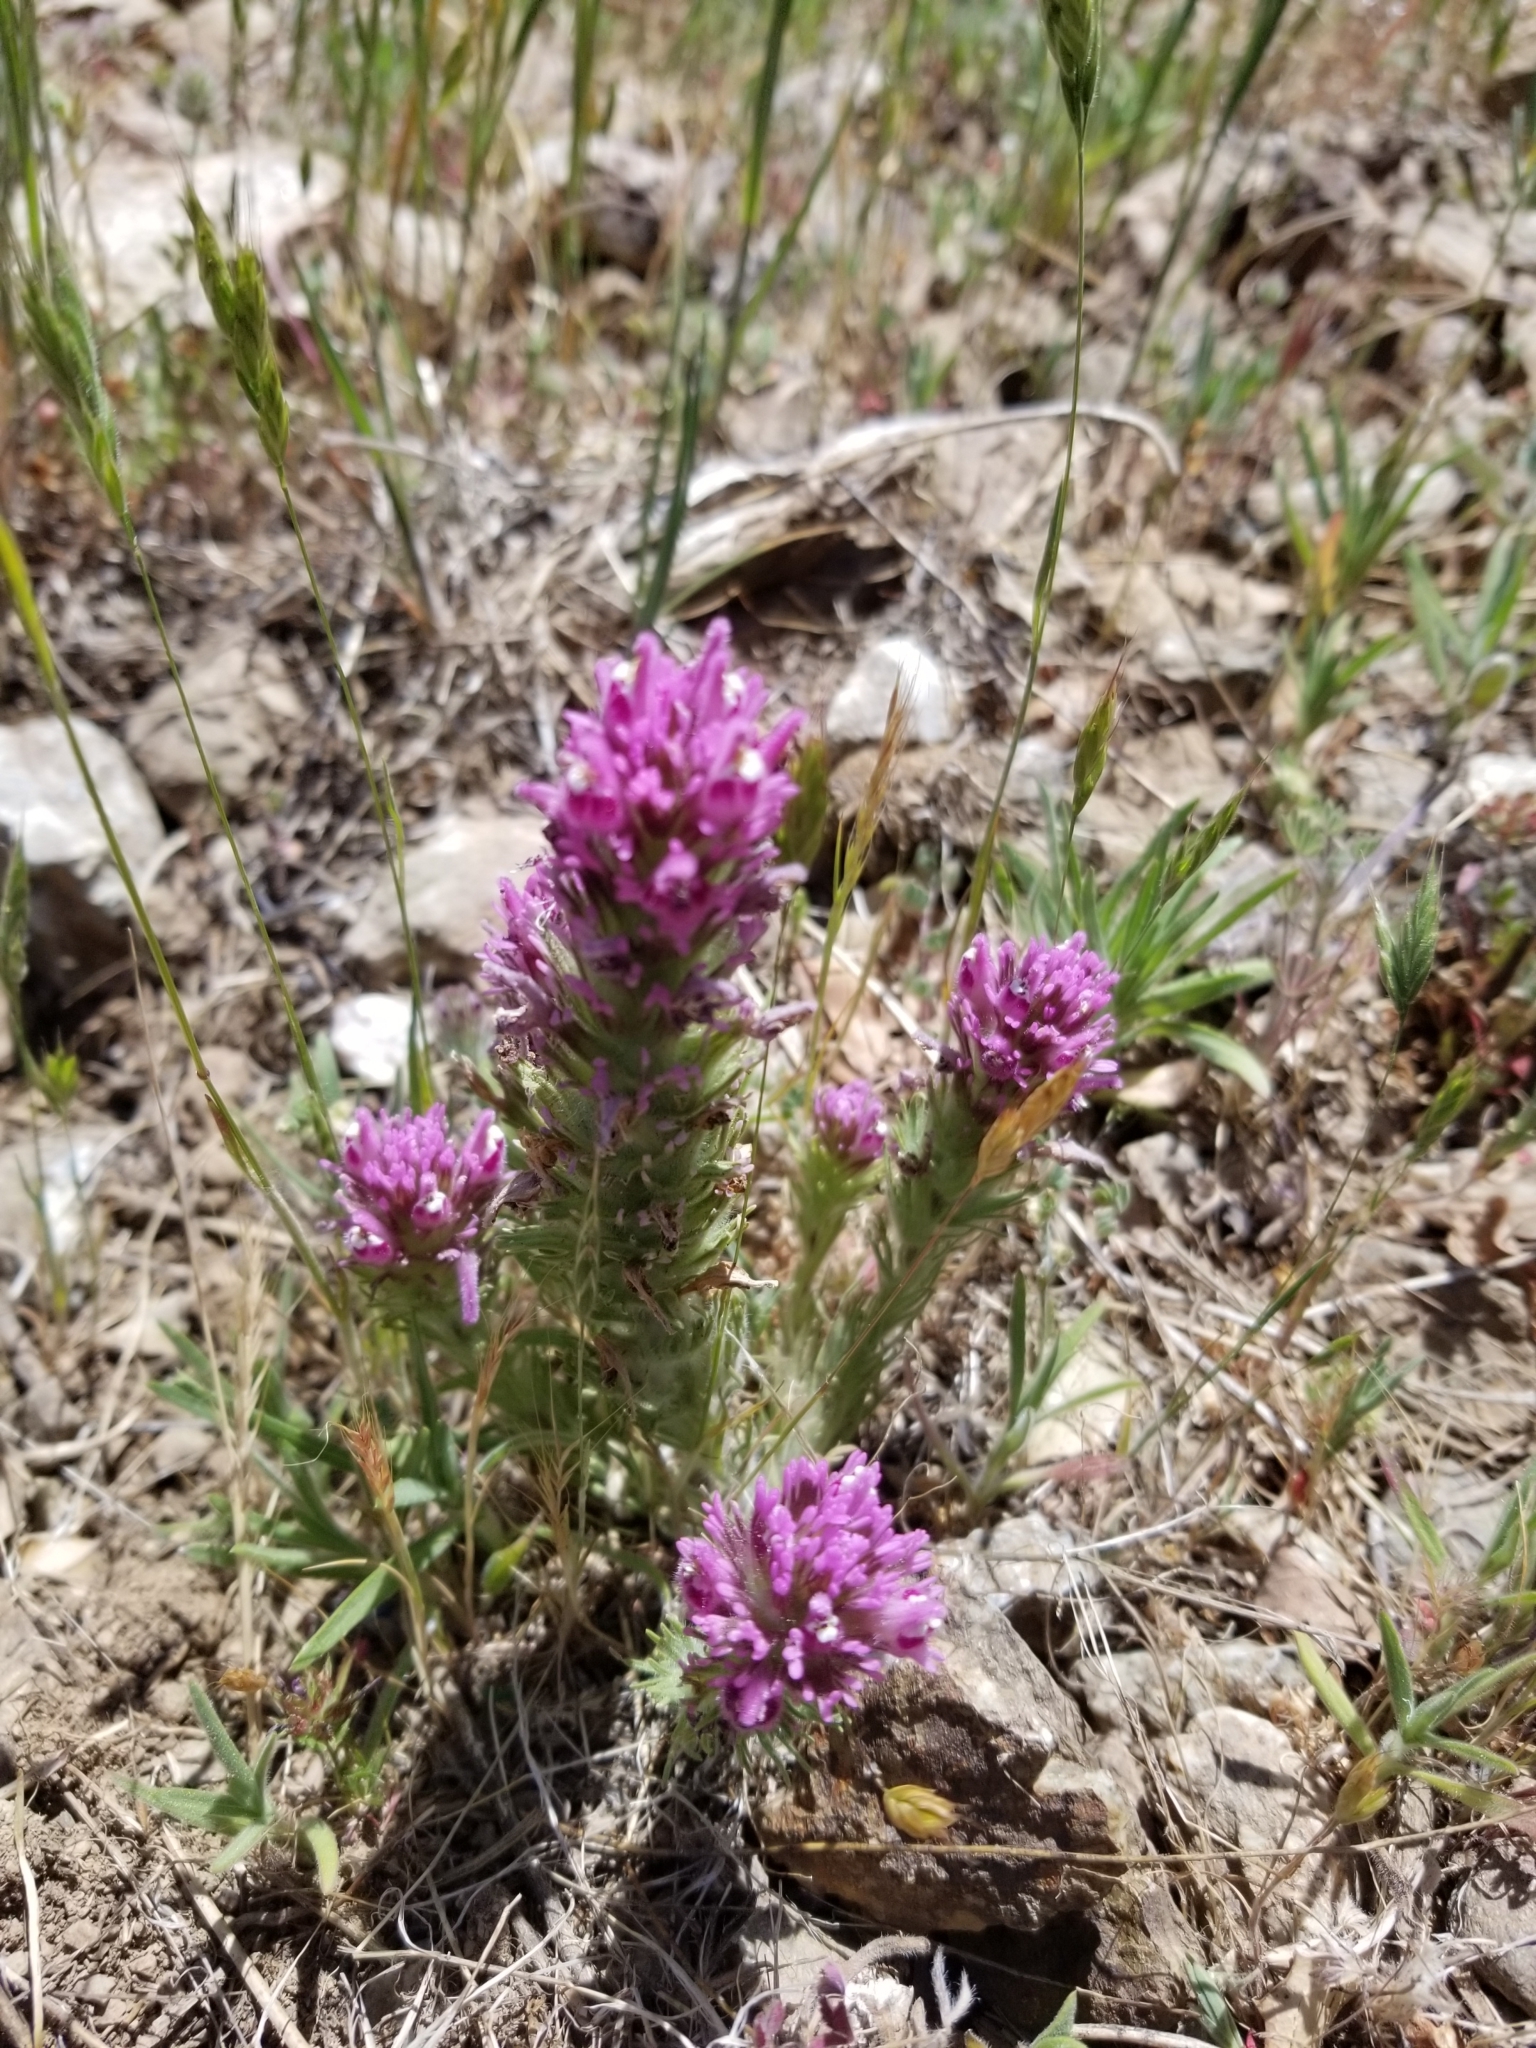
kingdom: Plantae
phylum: Tracheophyta
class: Magnoliopsida
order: Lamiales
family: Orobanchaceae
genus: Castilleja
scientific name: Castilleja exserta
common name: Purple owl-clover
